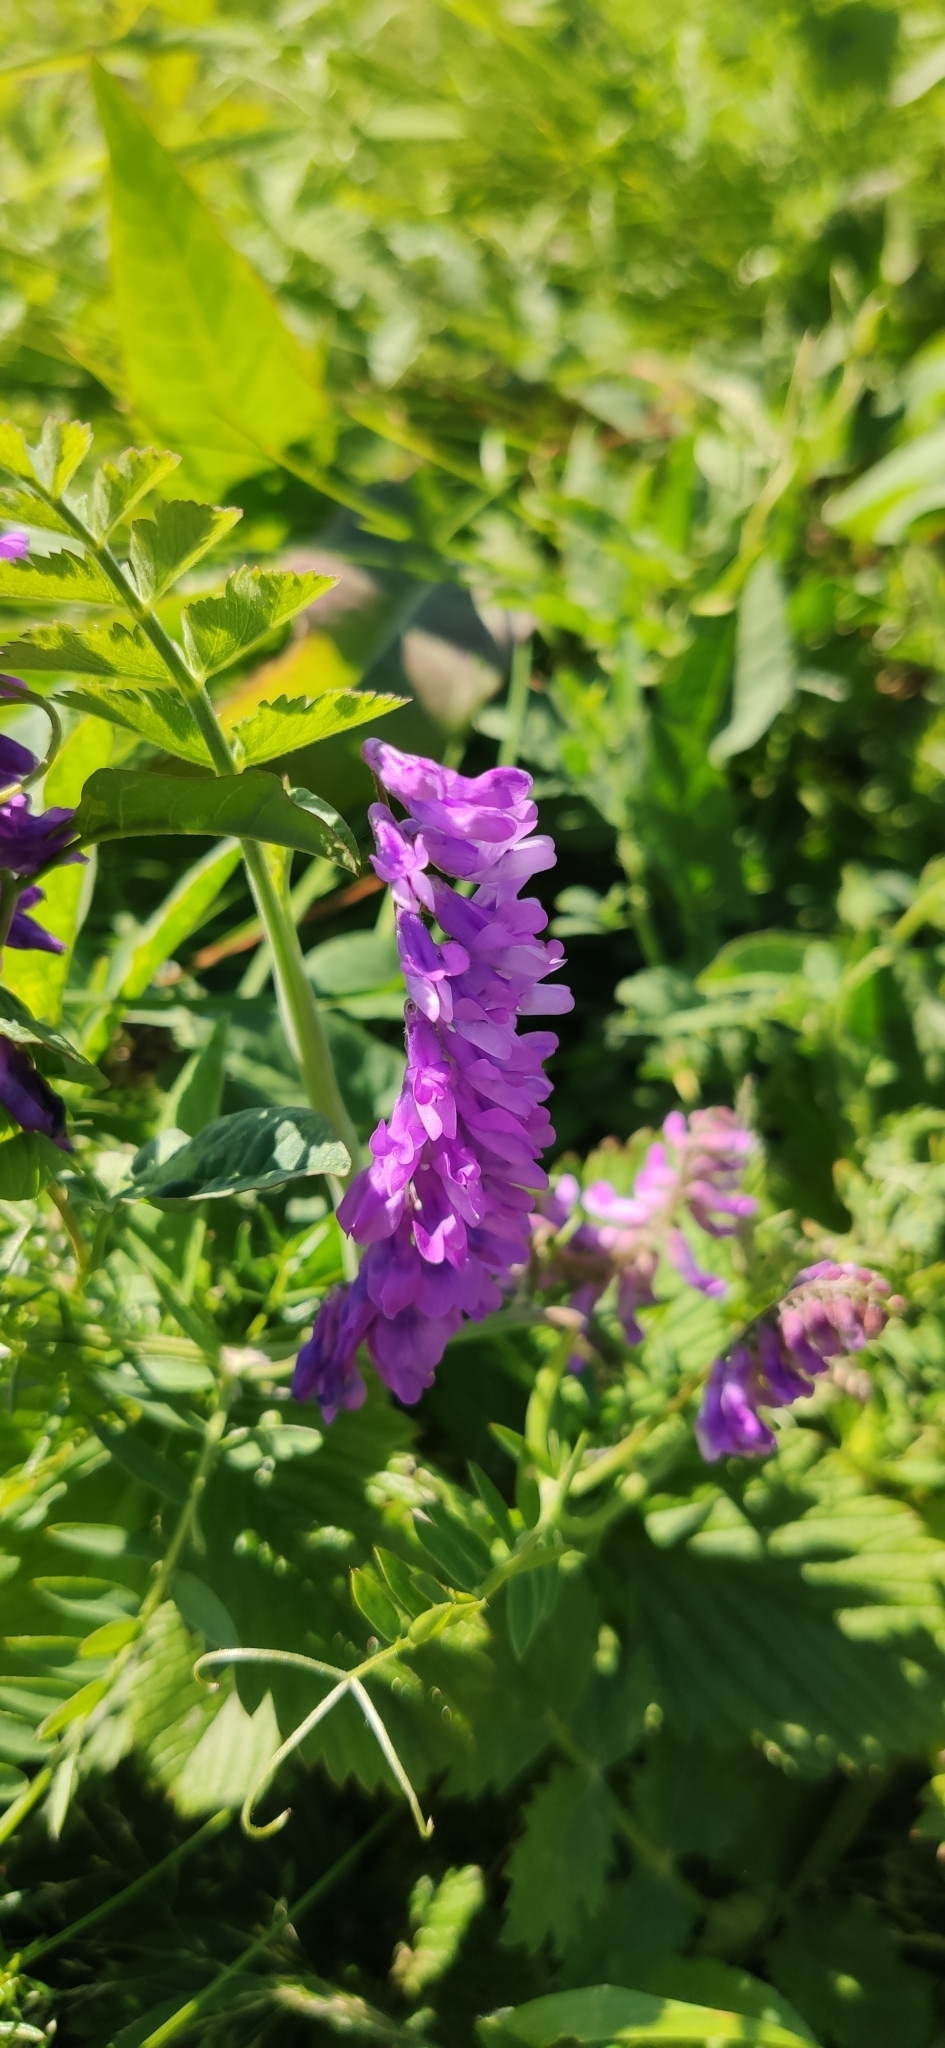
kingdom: Plantae
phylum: Tracheophyta
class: Magnoliopsida
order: Fabales
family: Fabaceae
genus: Vicia
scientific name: Vicia cracca
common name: Bird vetch
